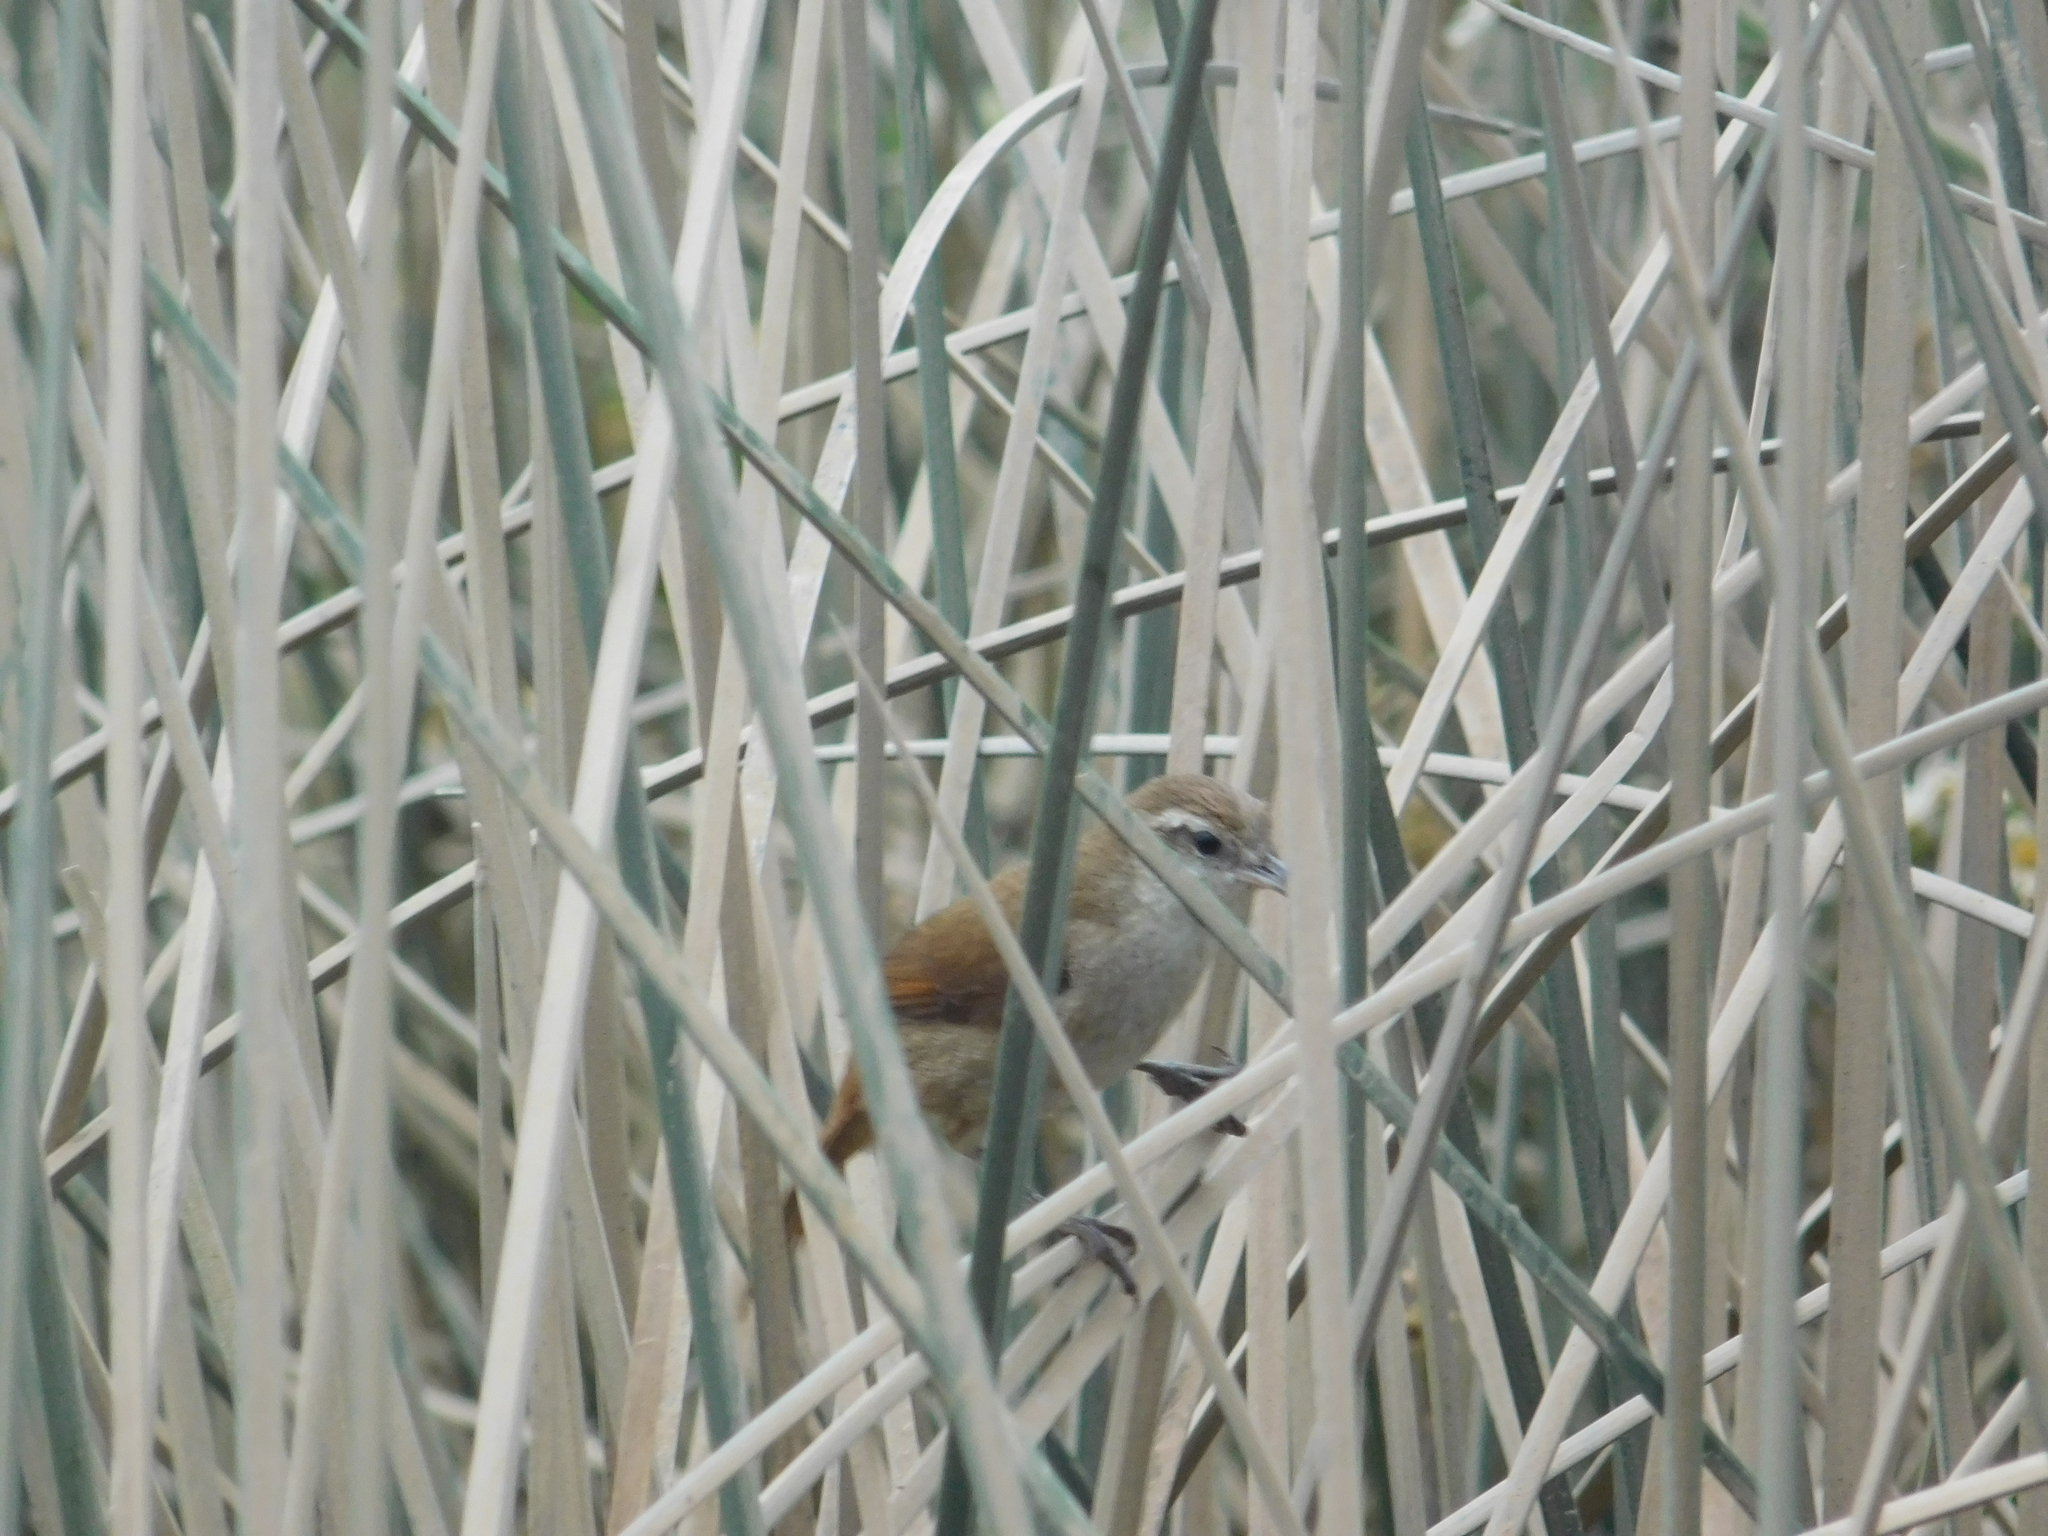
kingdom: Animalia
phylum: Chordata
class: Aves
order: Passeriformes
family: Furnariidae
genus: Limnornis
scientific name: Limnornis curvirostris
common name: Curve-billed reedhaunter
